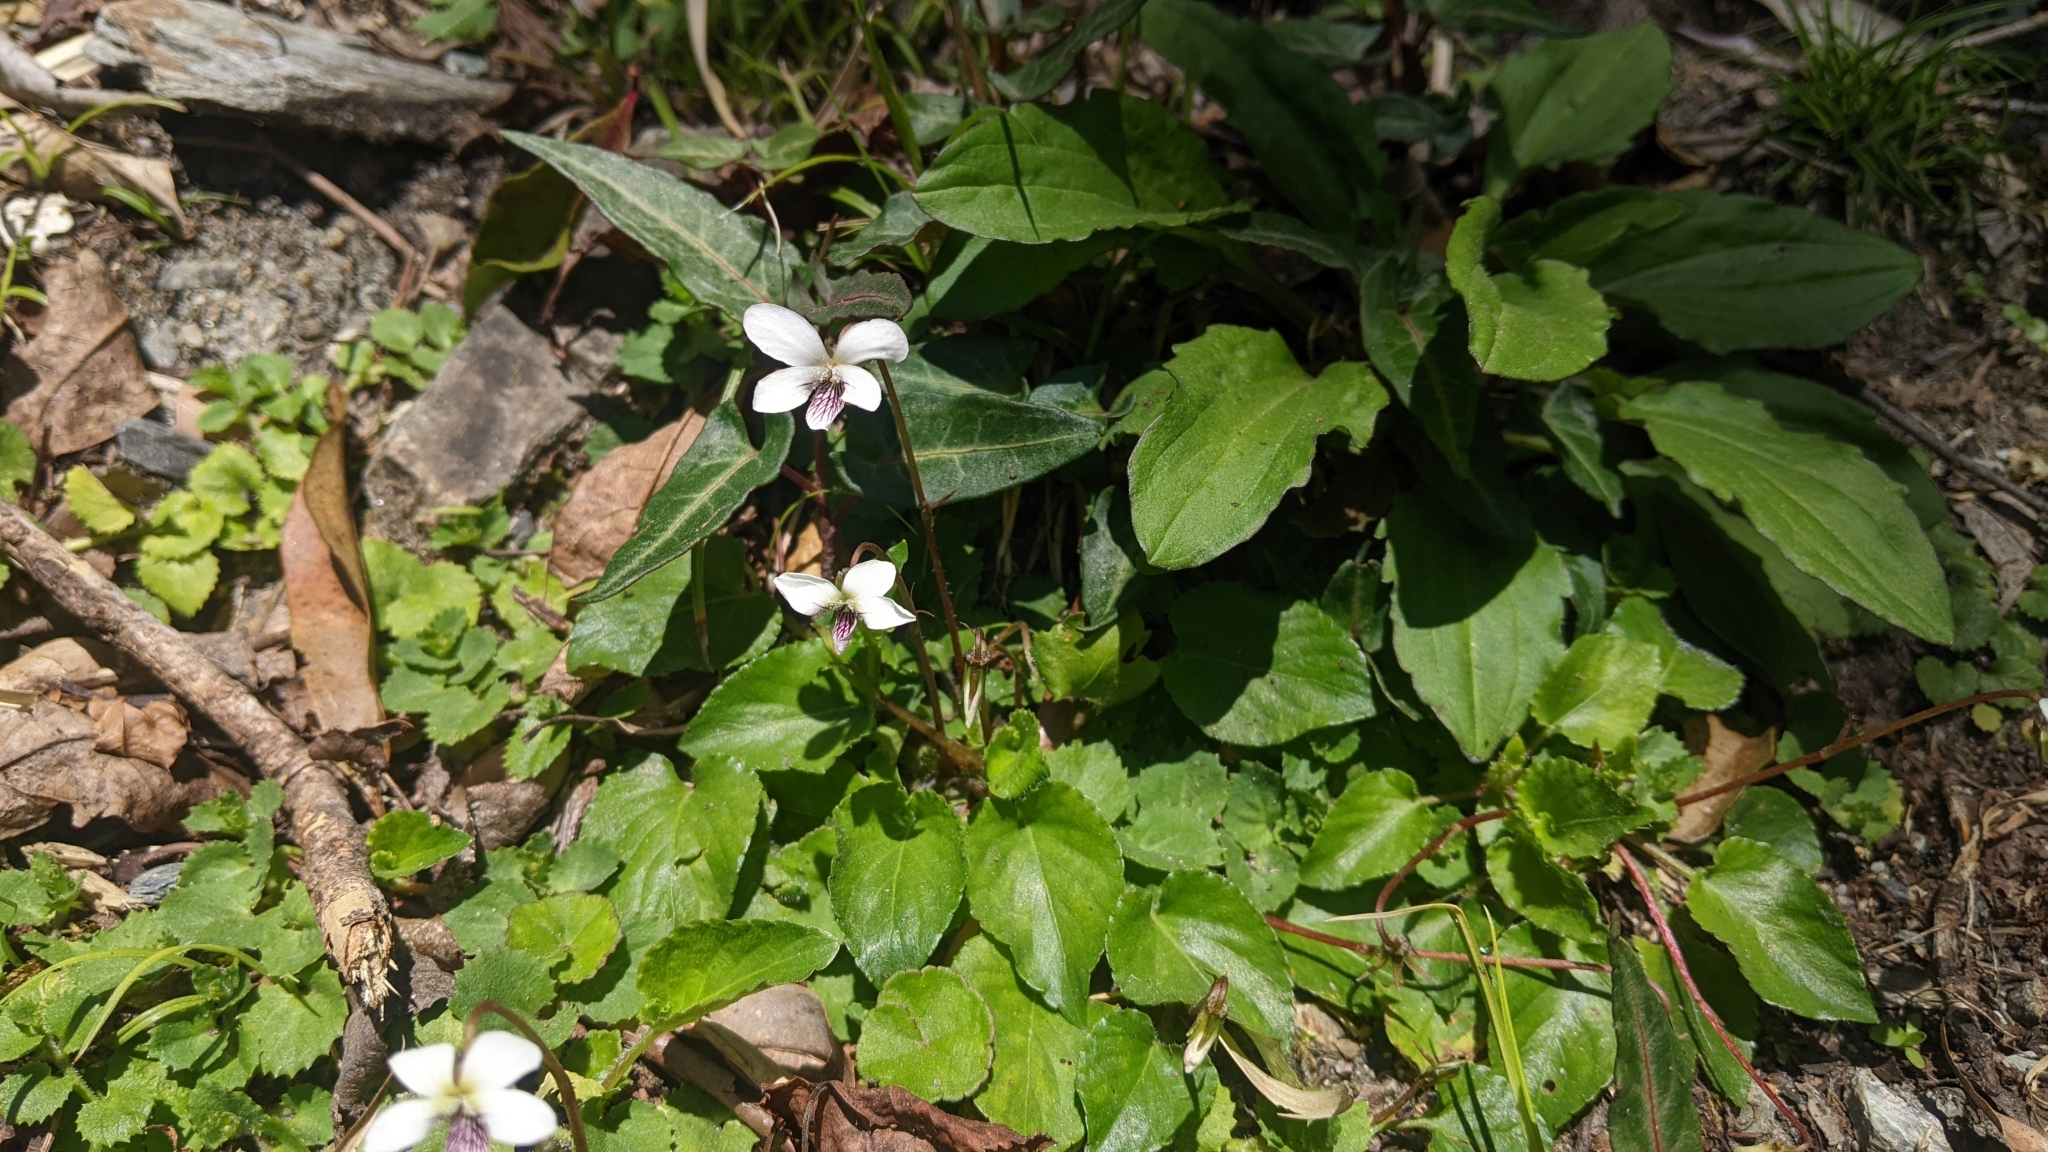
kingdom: Plantae
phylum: Tracheophyta
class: Magnoliopsida
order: Malpighiales
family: Violaceae
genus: Viola
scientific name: Viola adenothrix
